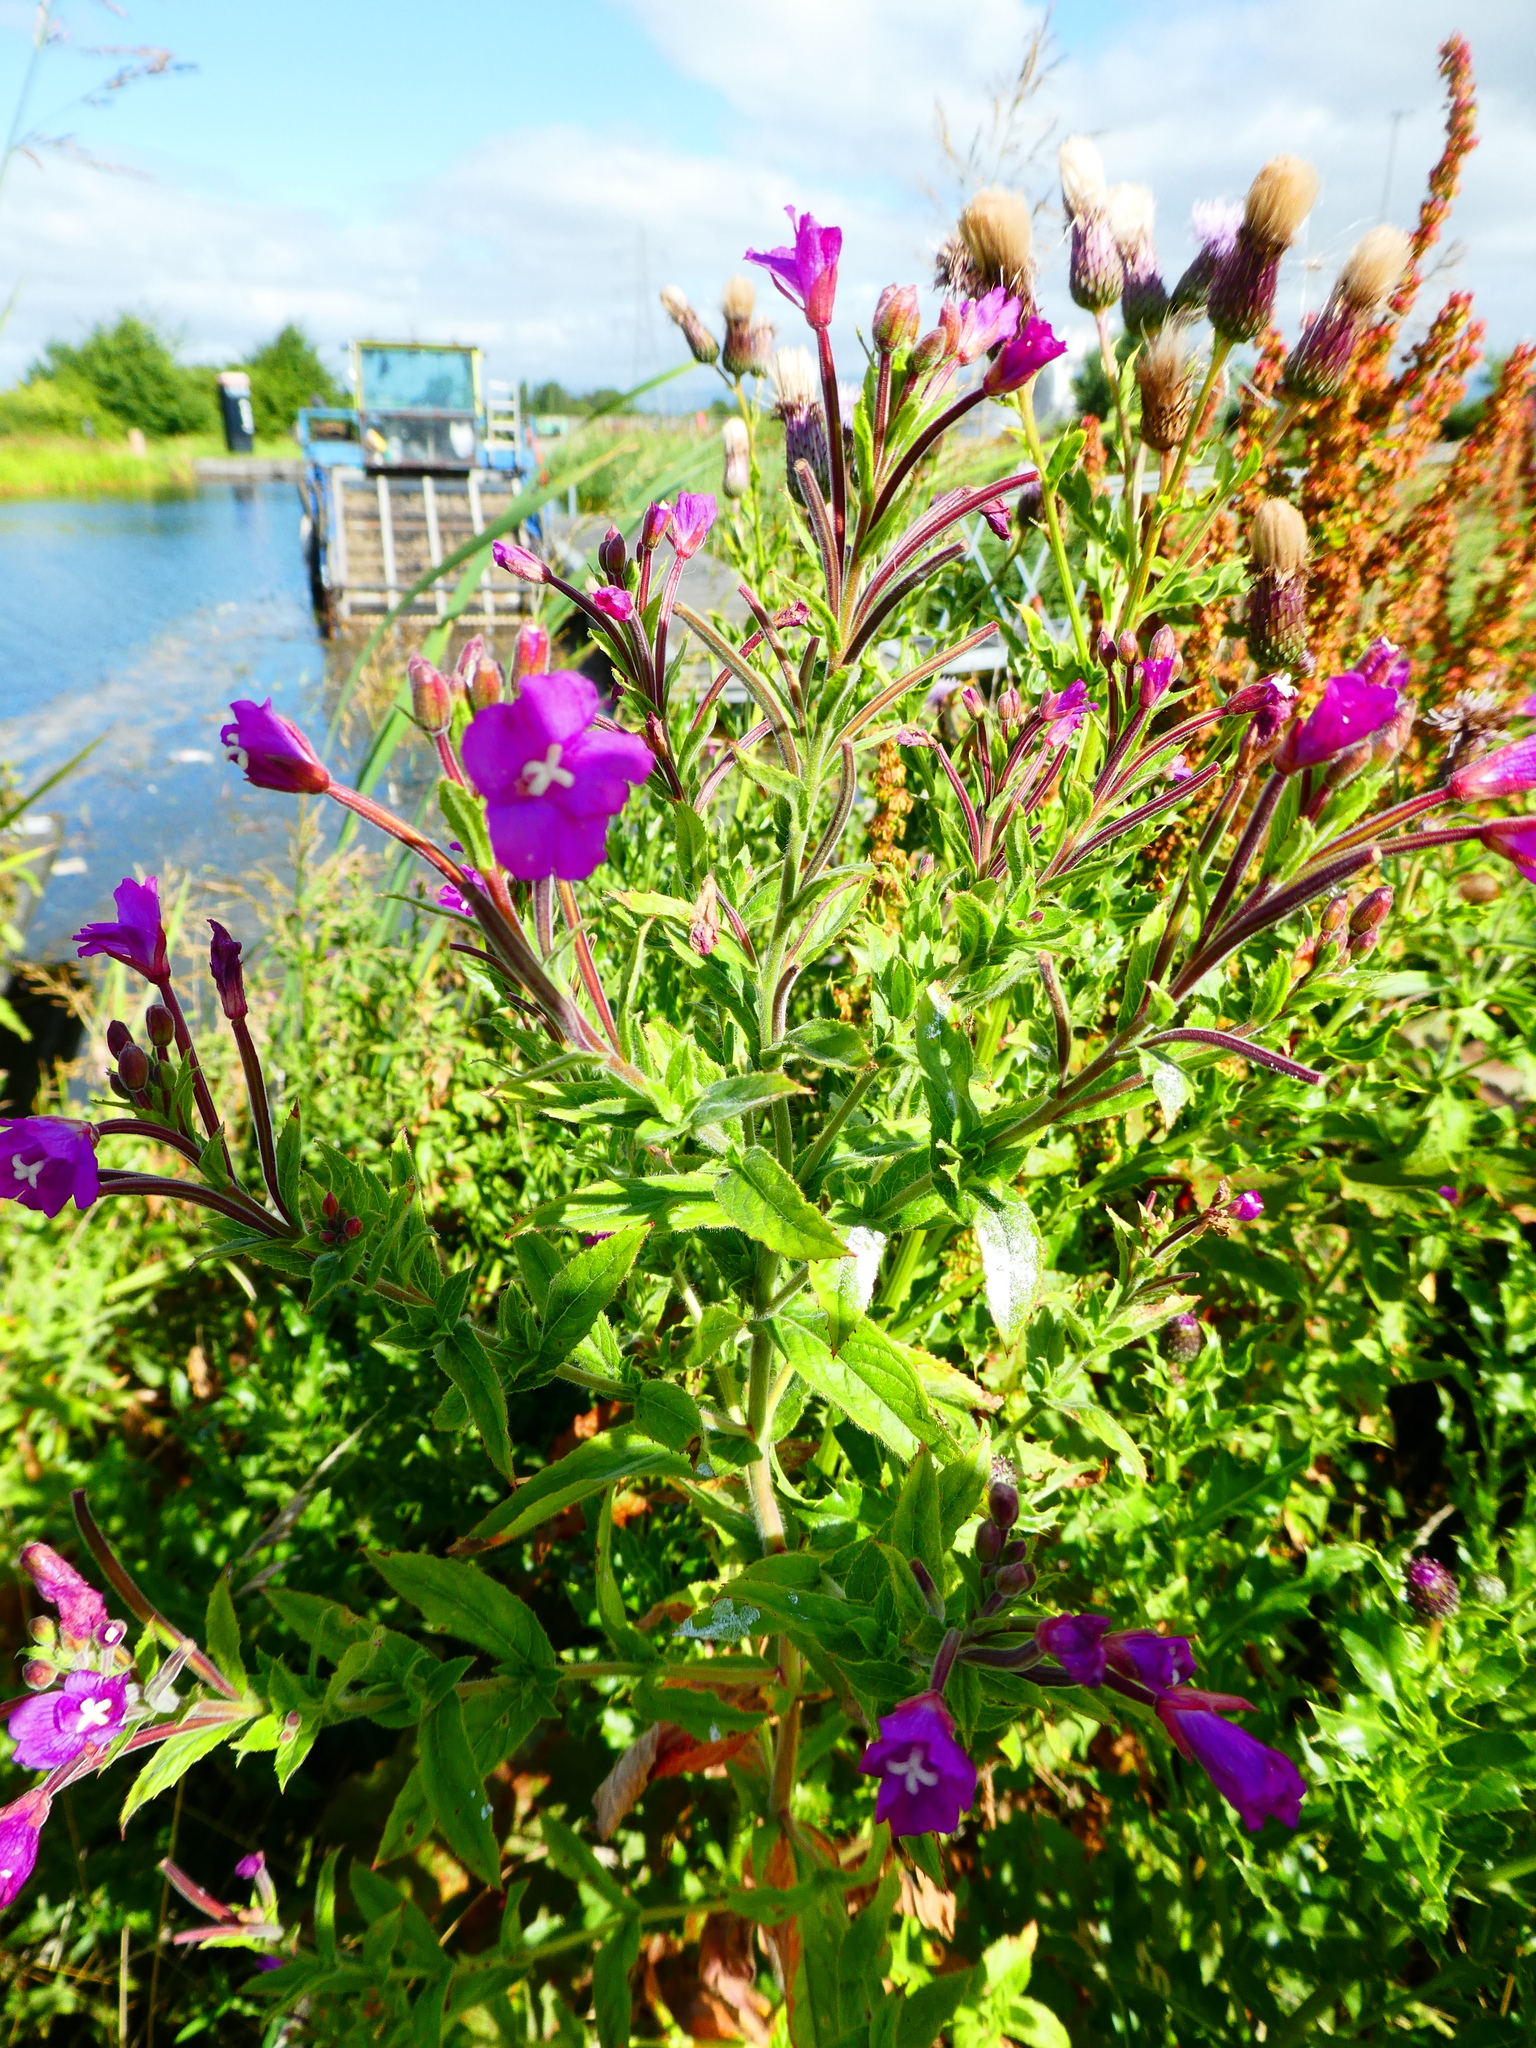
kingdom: Plantae
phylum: Tracheophyta
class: Magnoliopsida
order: Myrtales
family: Onagraceae
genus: Epilobium
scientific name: Epilobium hirsutum
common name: Great willowherb
